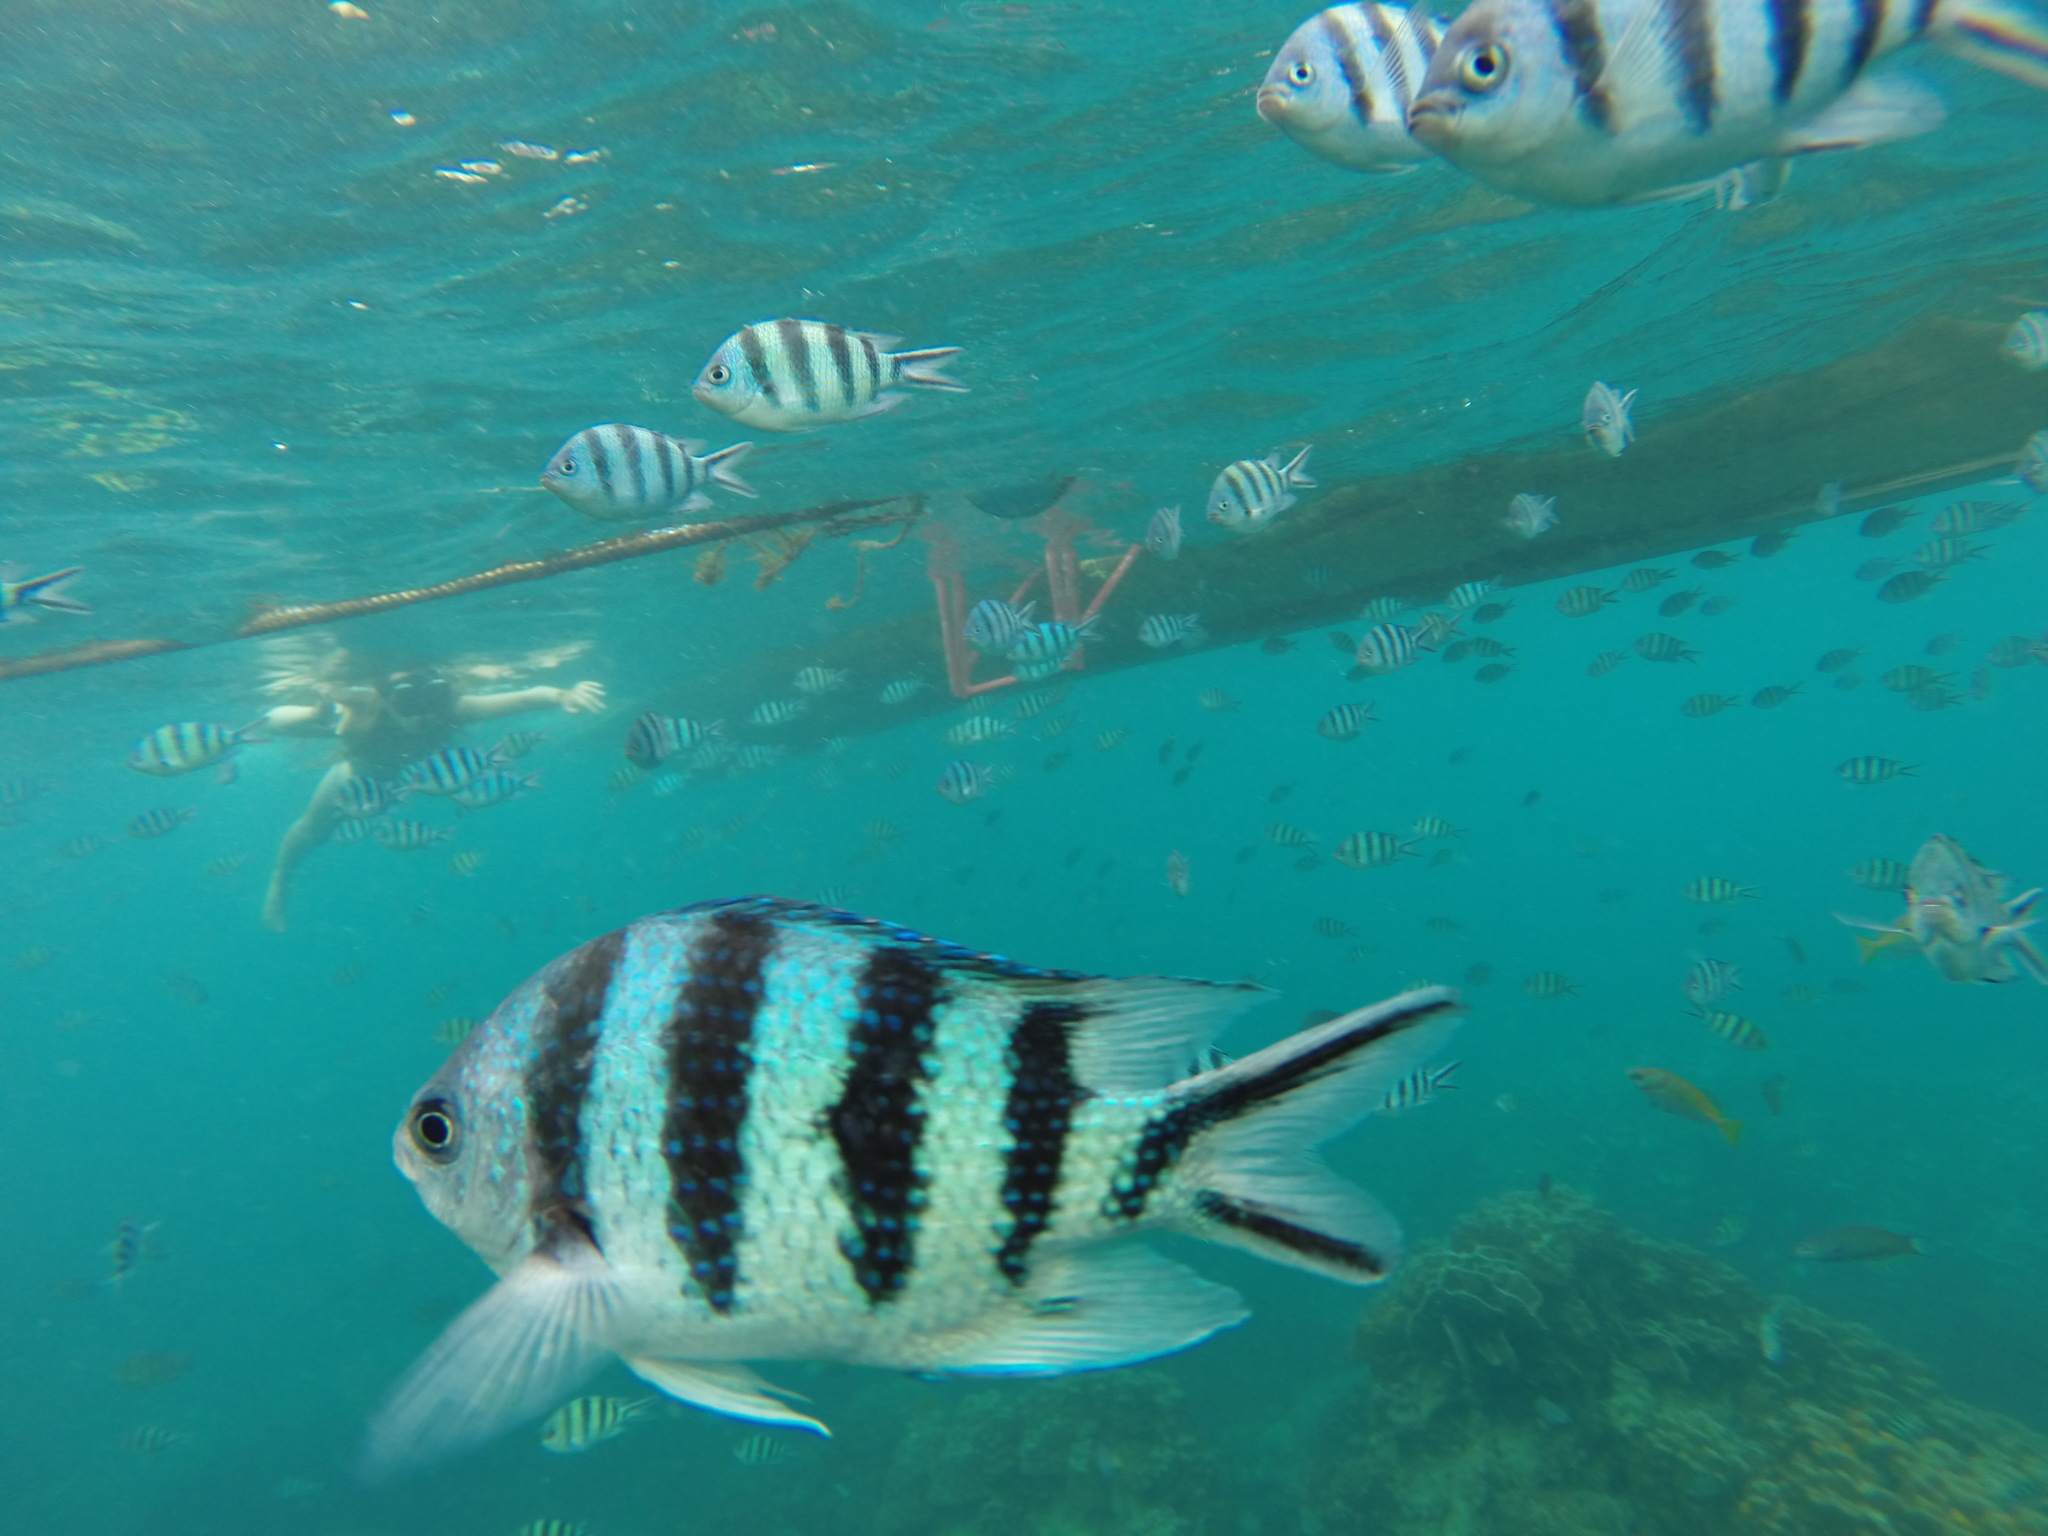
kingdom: Animalia
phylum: Chordata
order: Perciformes
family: Pomacentridae
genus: Abudefduf
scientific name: Abudefduf sexfasciatus
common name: Scissortail sergeant
